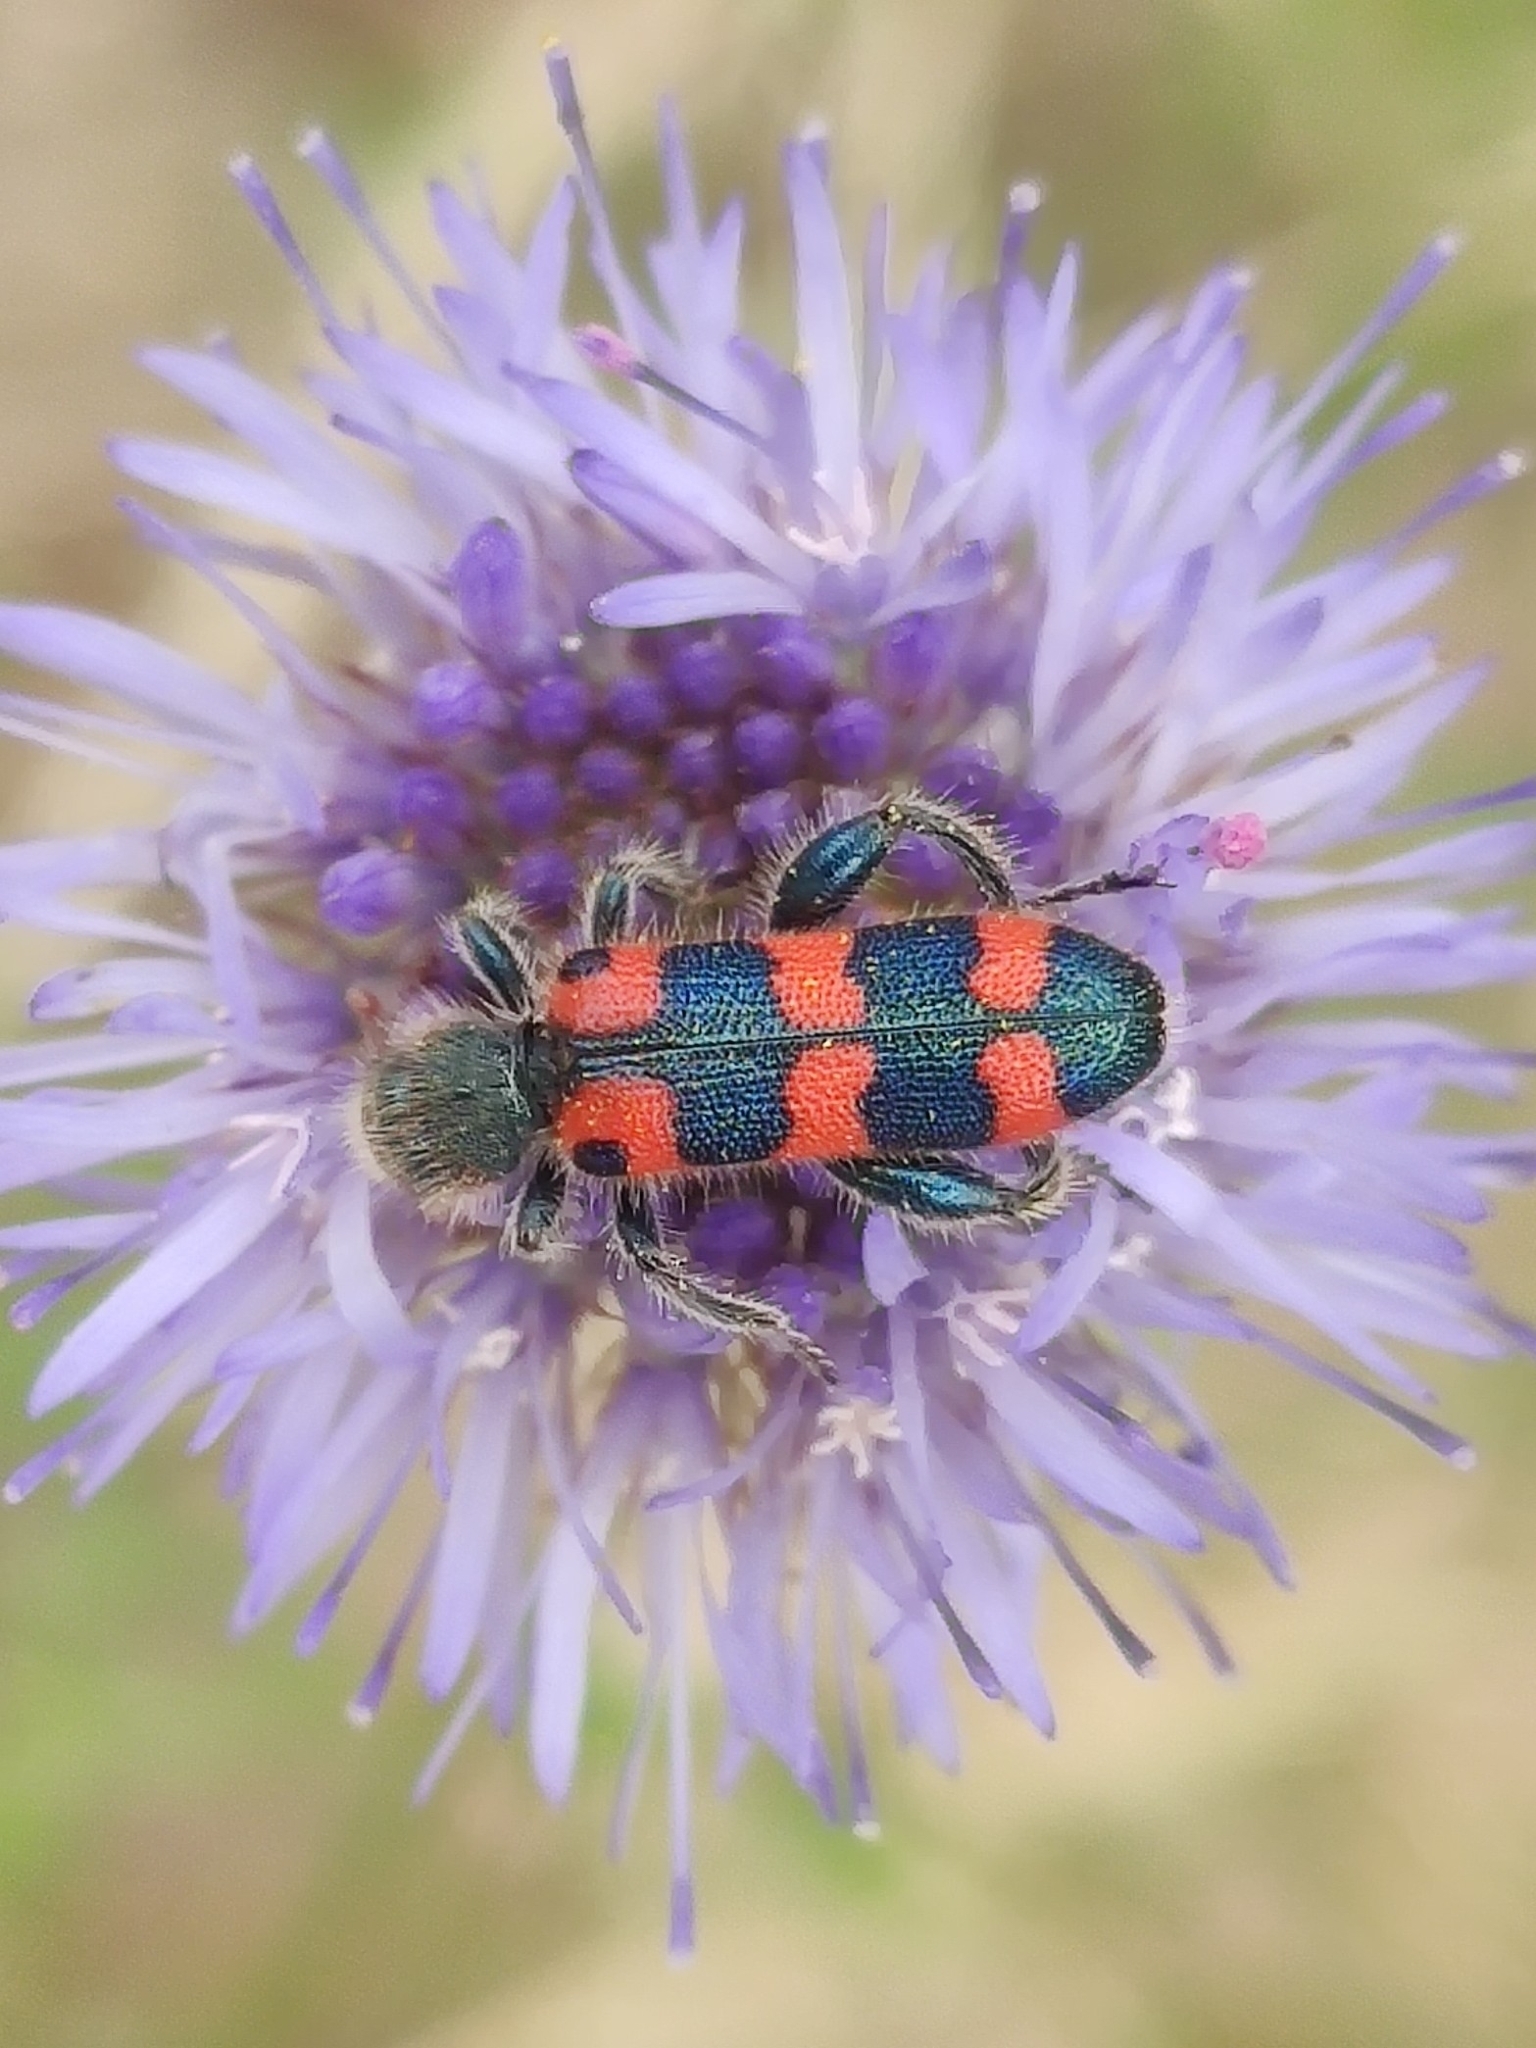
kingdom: Animalia
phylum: Arthropoda
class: Insecta
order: Coleoptera
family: Cleridae
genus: Trichodes
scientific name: Trichodes leucopsideus
